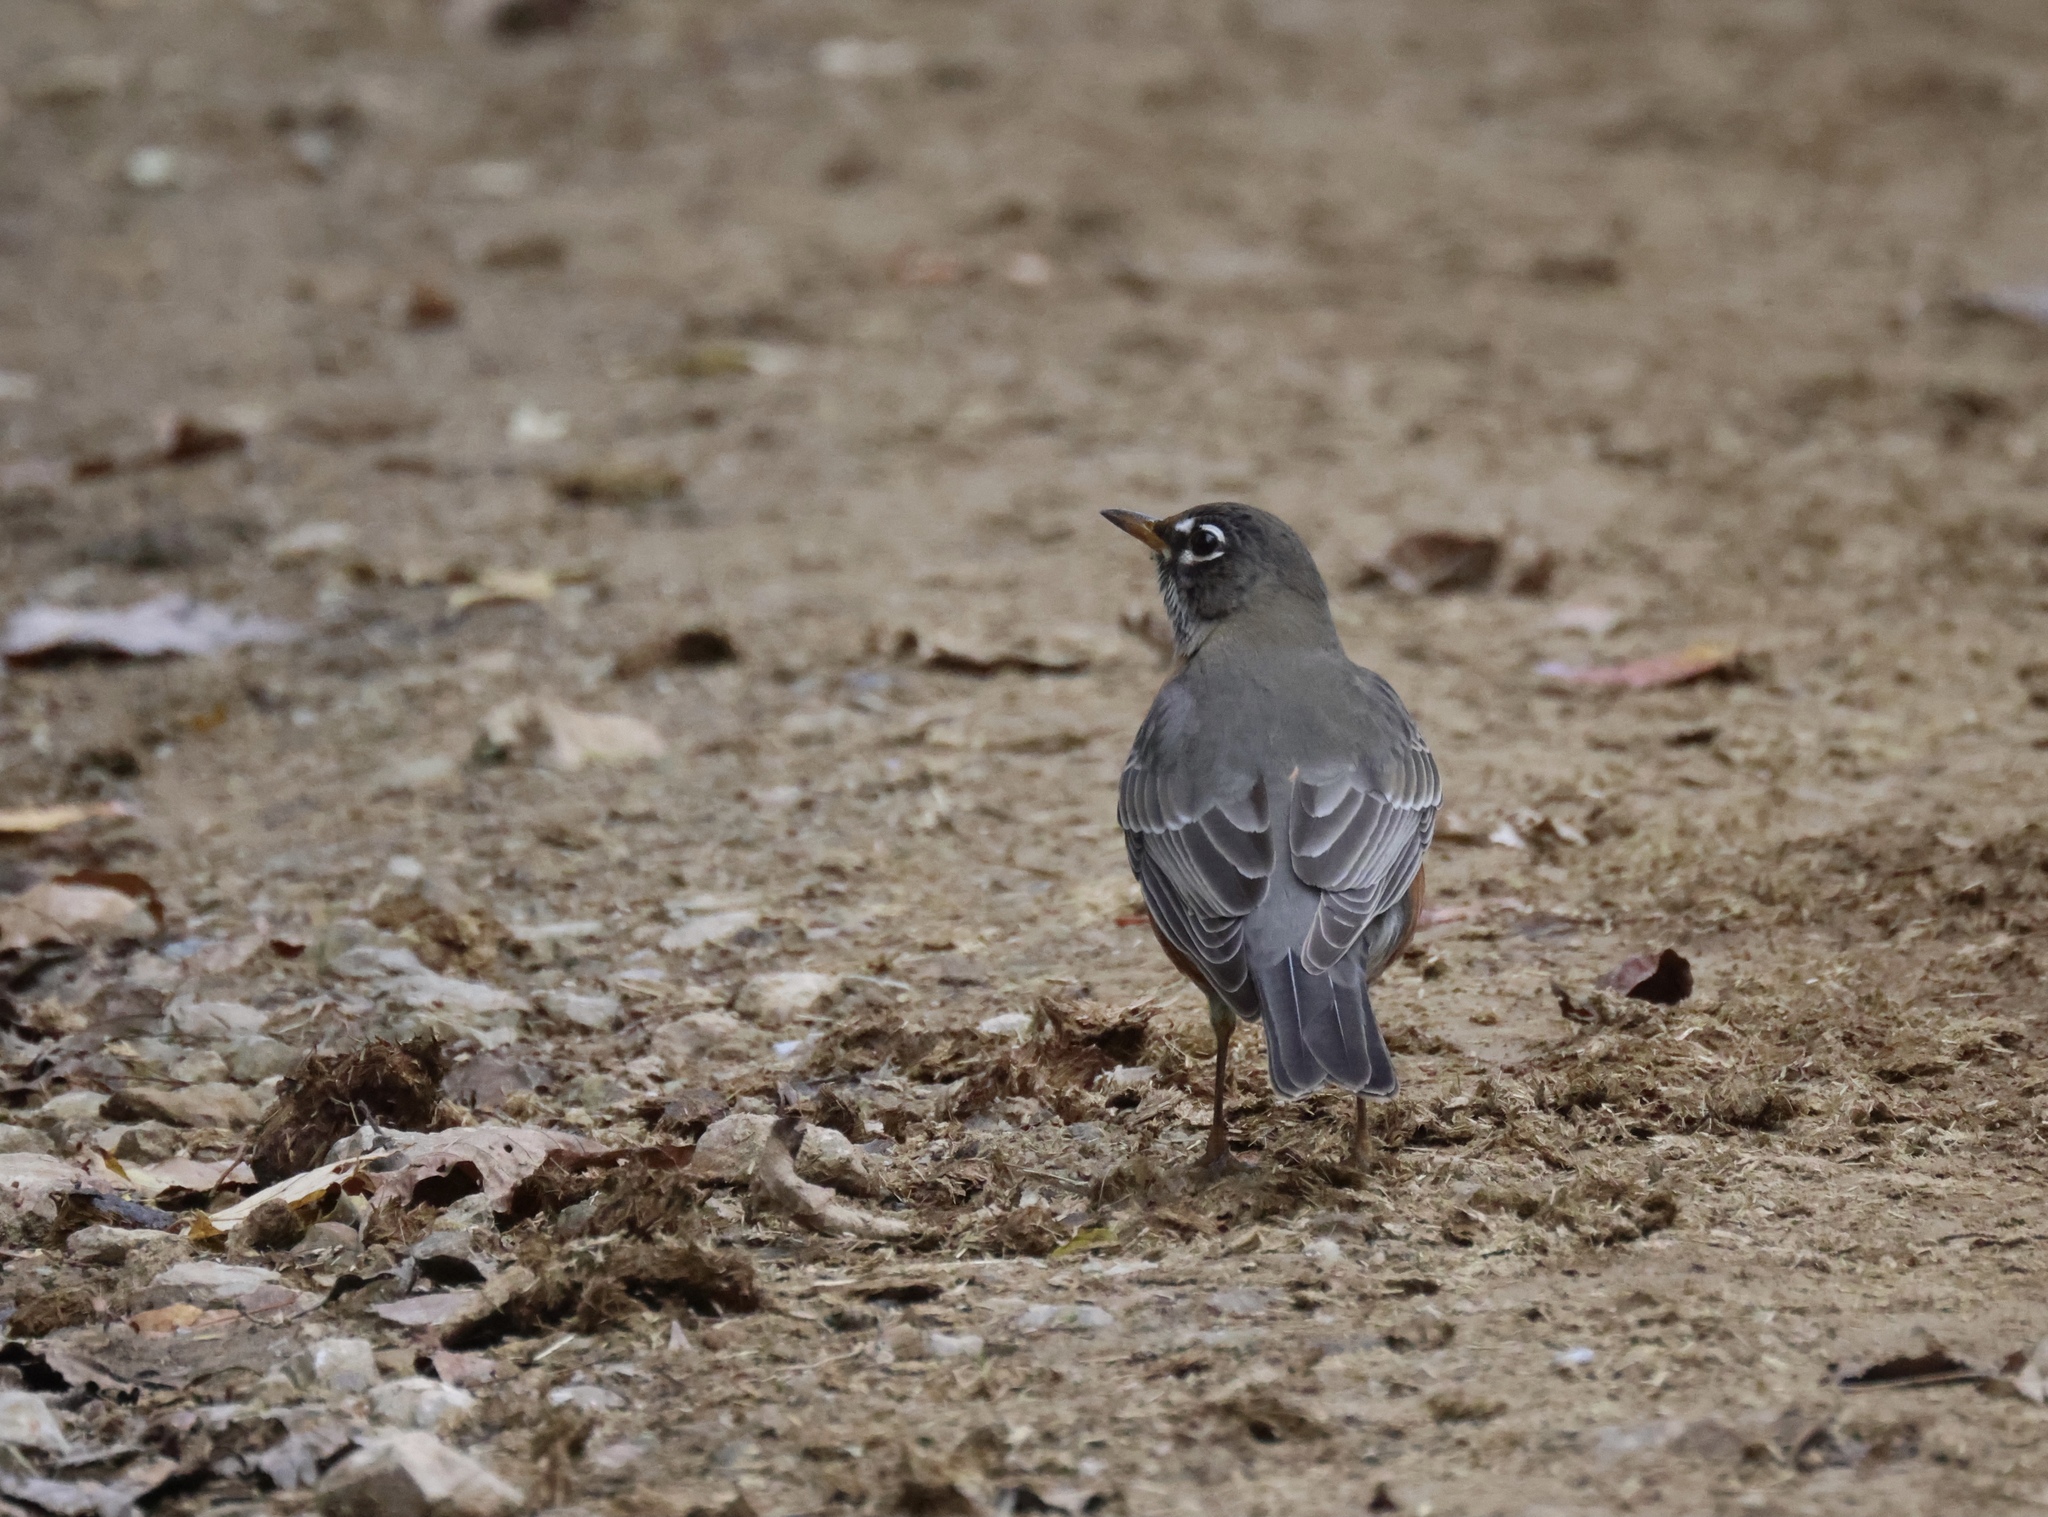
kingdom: Animalia
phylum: Chordata
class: Aves
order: Passeriformes
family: Turdidae
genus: Turdus
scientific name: Turdus migratorius
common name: American robin
